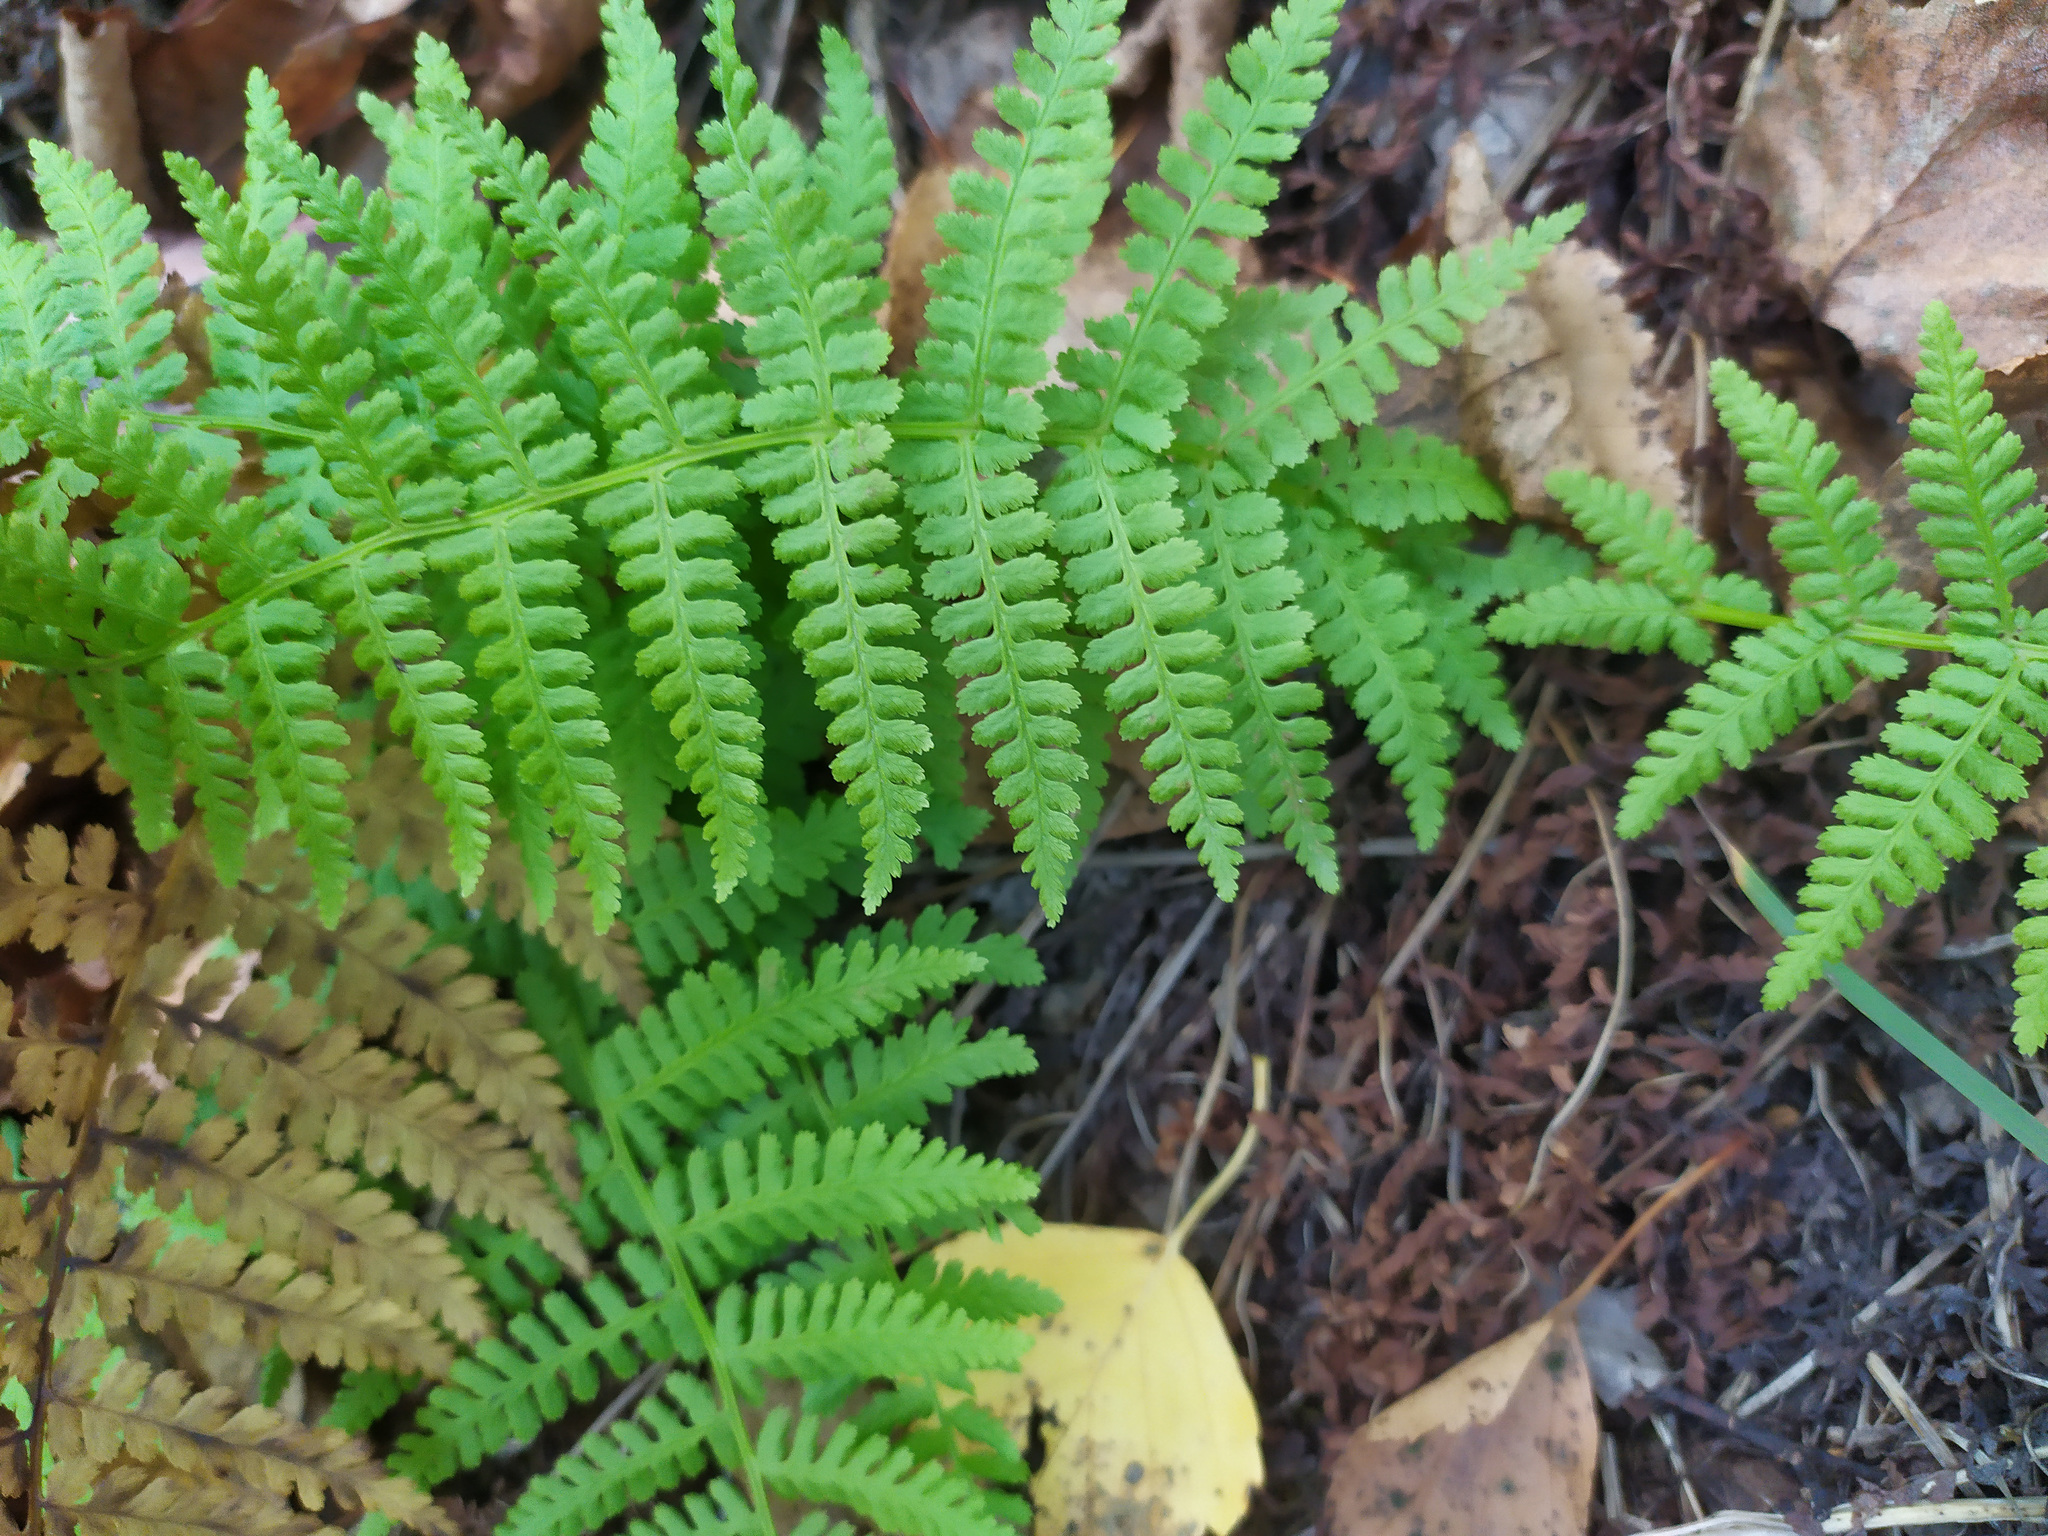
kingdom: Plantae
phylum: Tracheophyta
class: Polypodiopsida
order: Polypodiales
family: Athyriaceae
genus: Athyrium
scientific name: Athyrium filix-femina
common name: Lady fern
